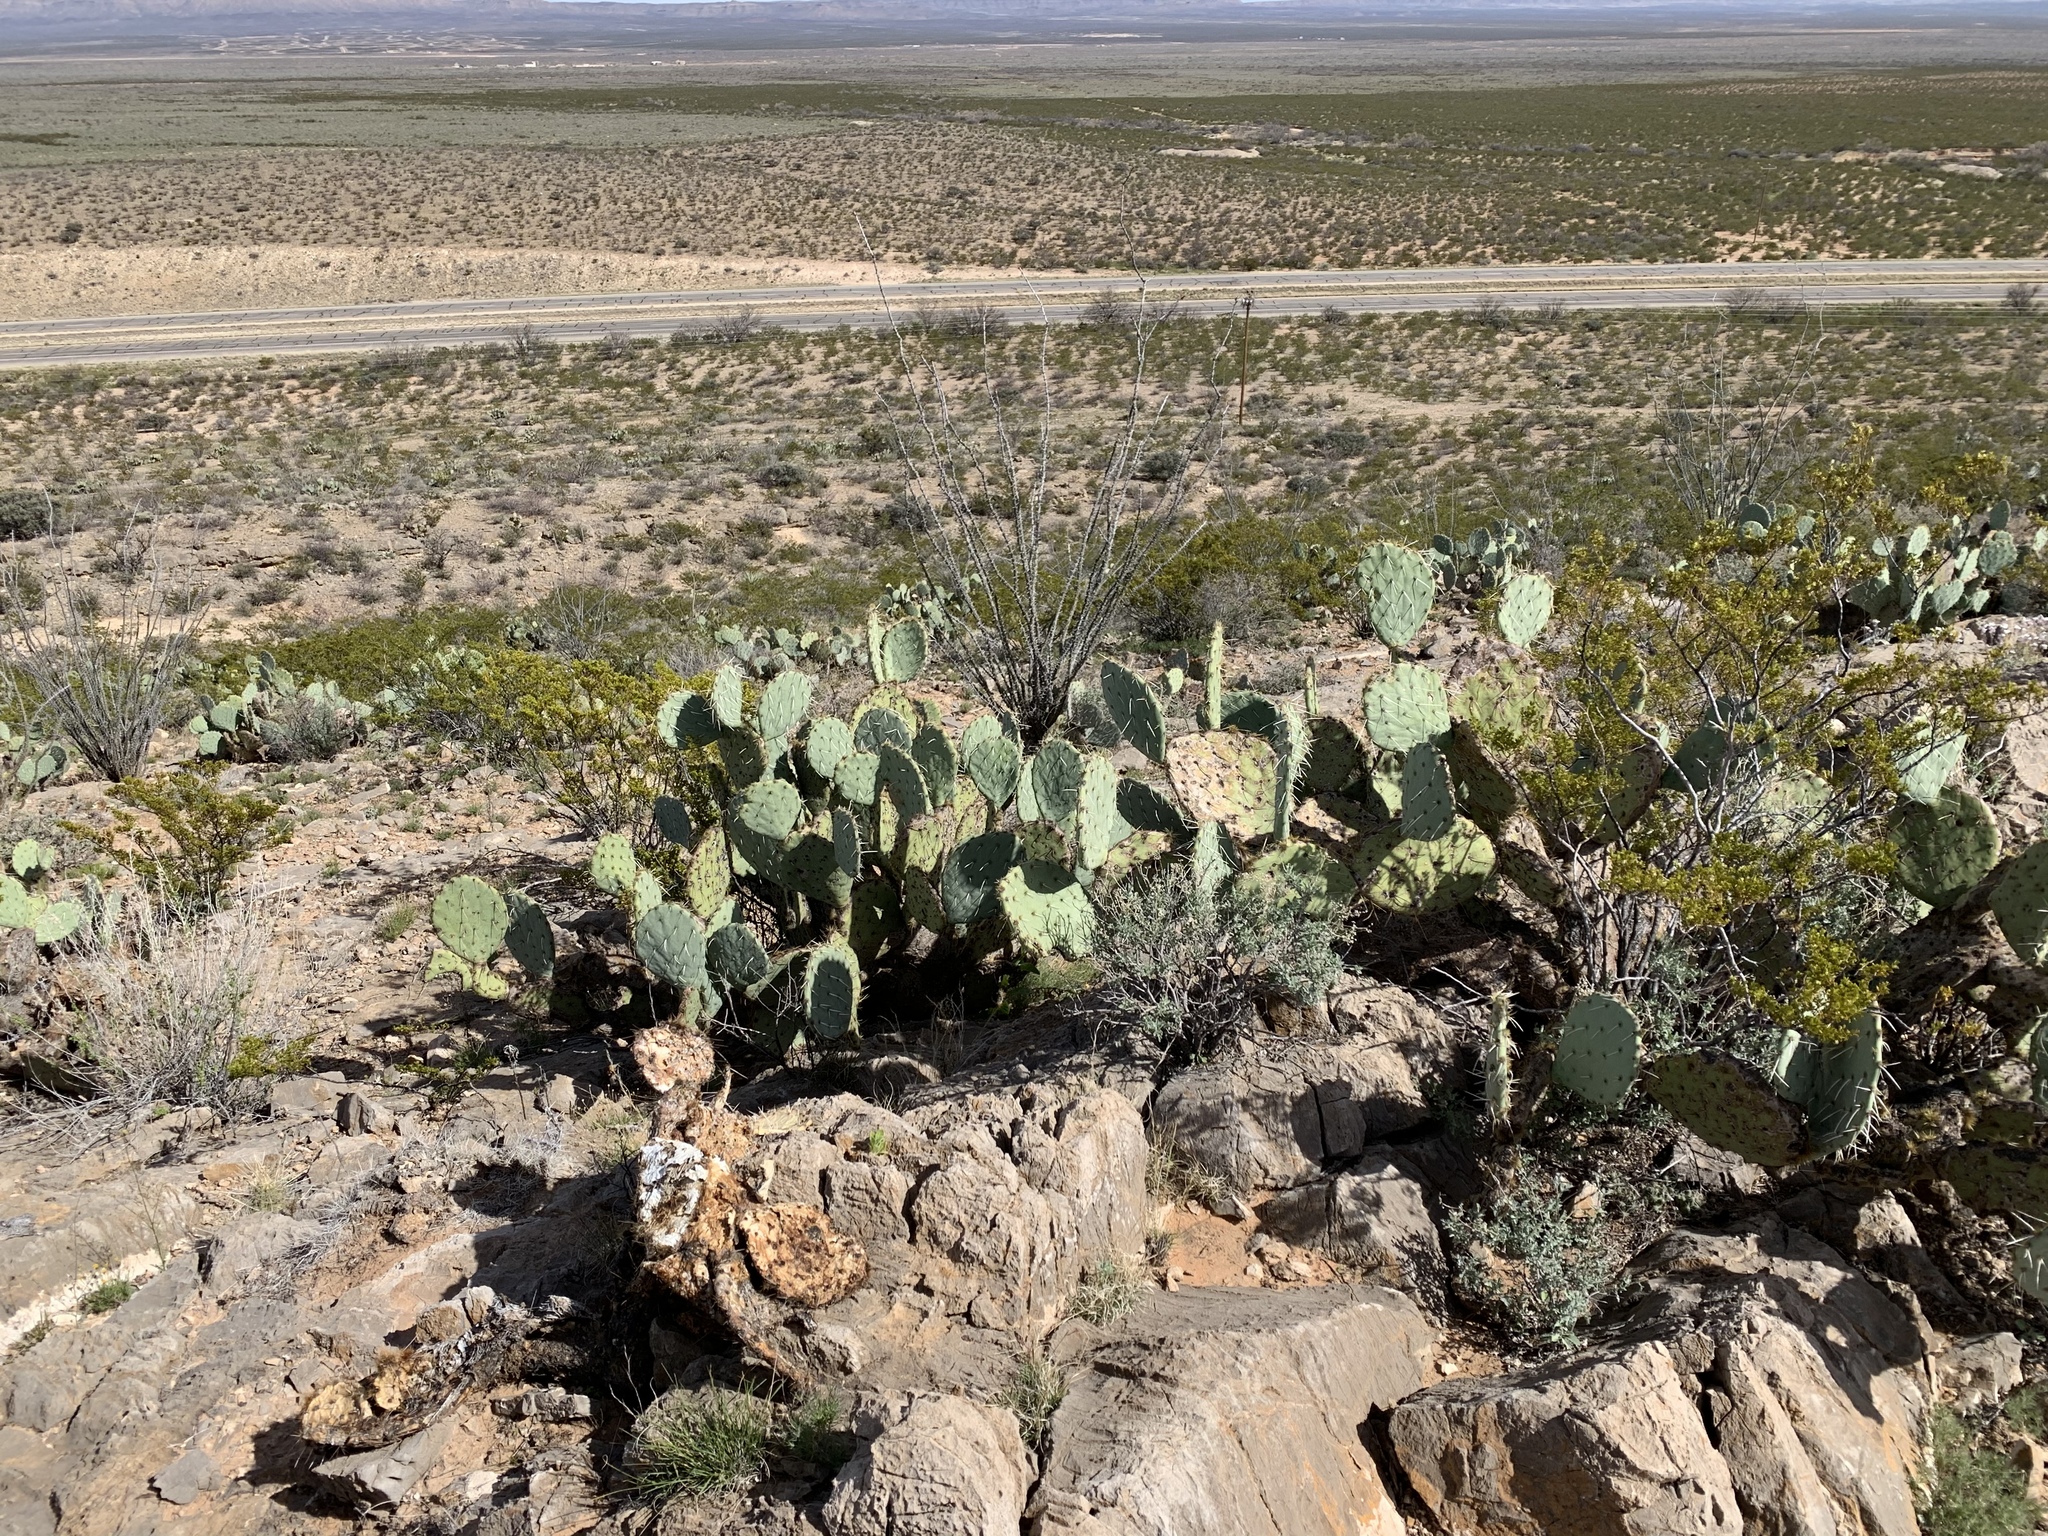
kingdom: Plantae
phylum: Tracheophyta
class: Magnoliopsida
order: Caryophyllales
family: Cactaceae
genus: Opuntia
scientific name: Opuntia engelmannii
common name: Cactus-apple
